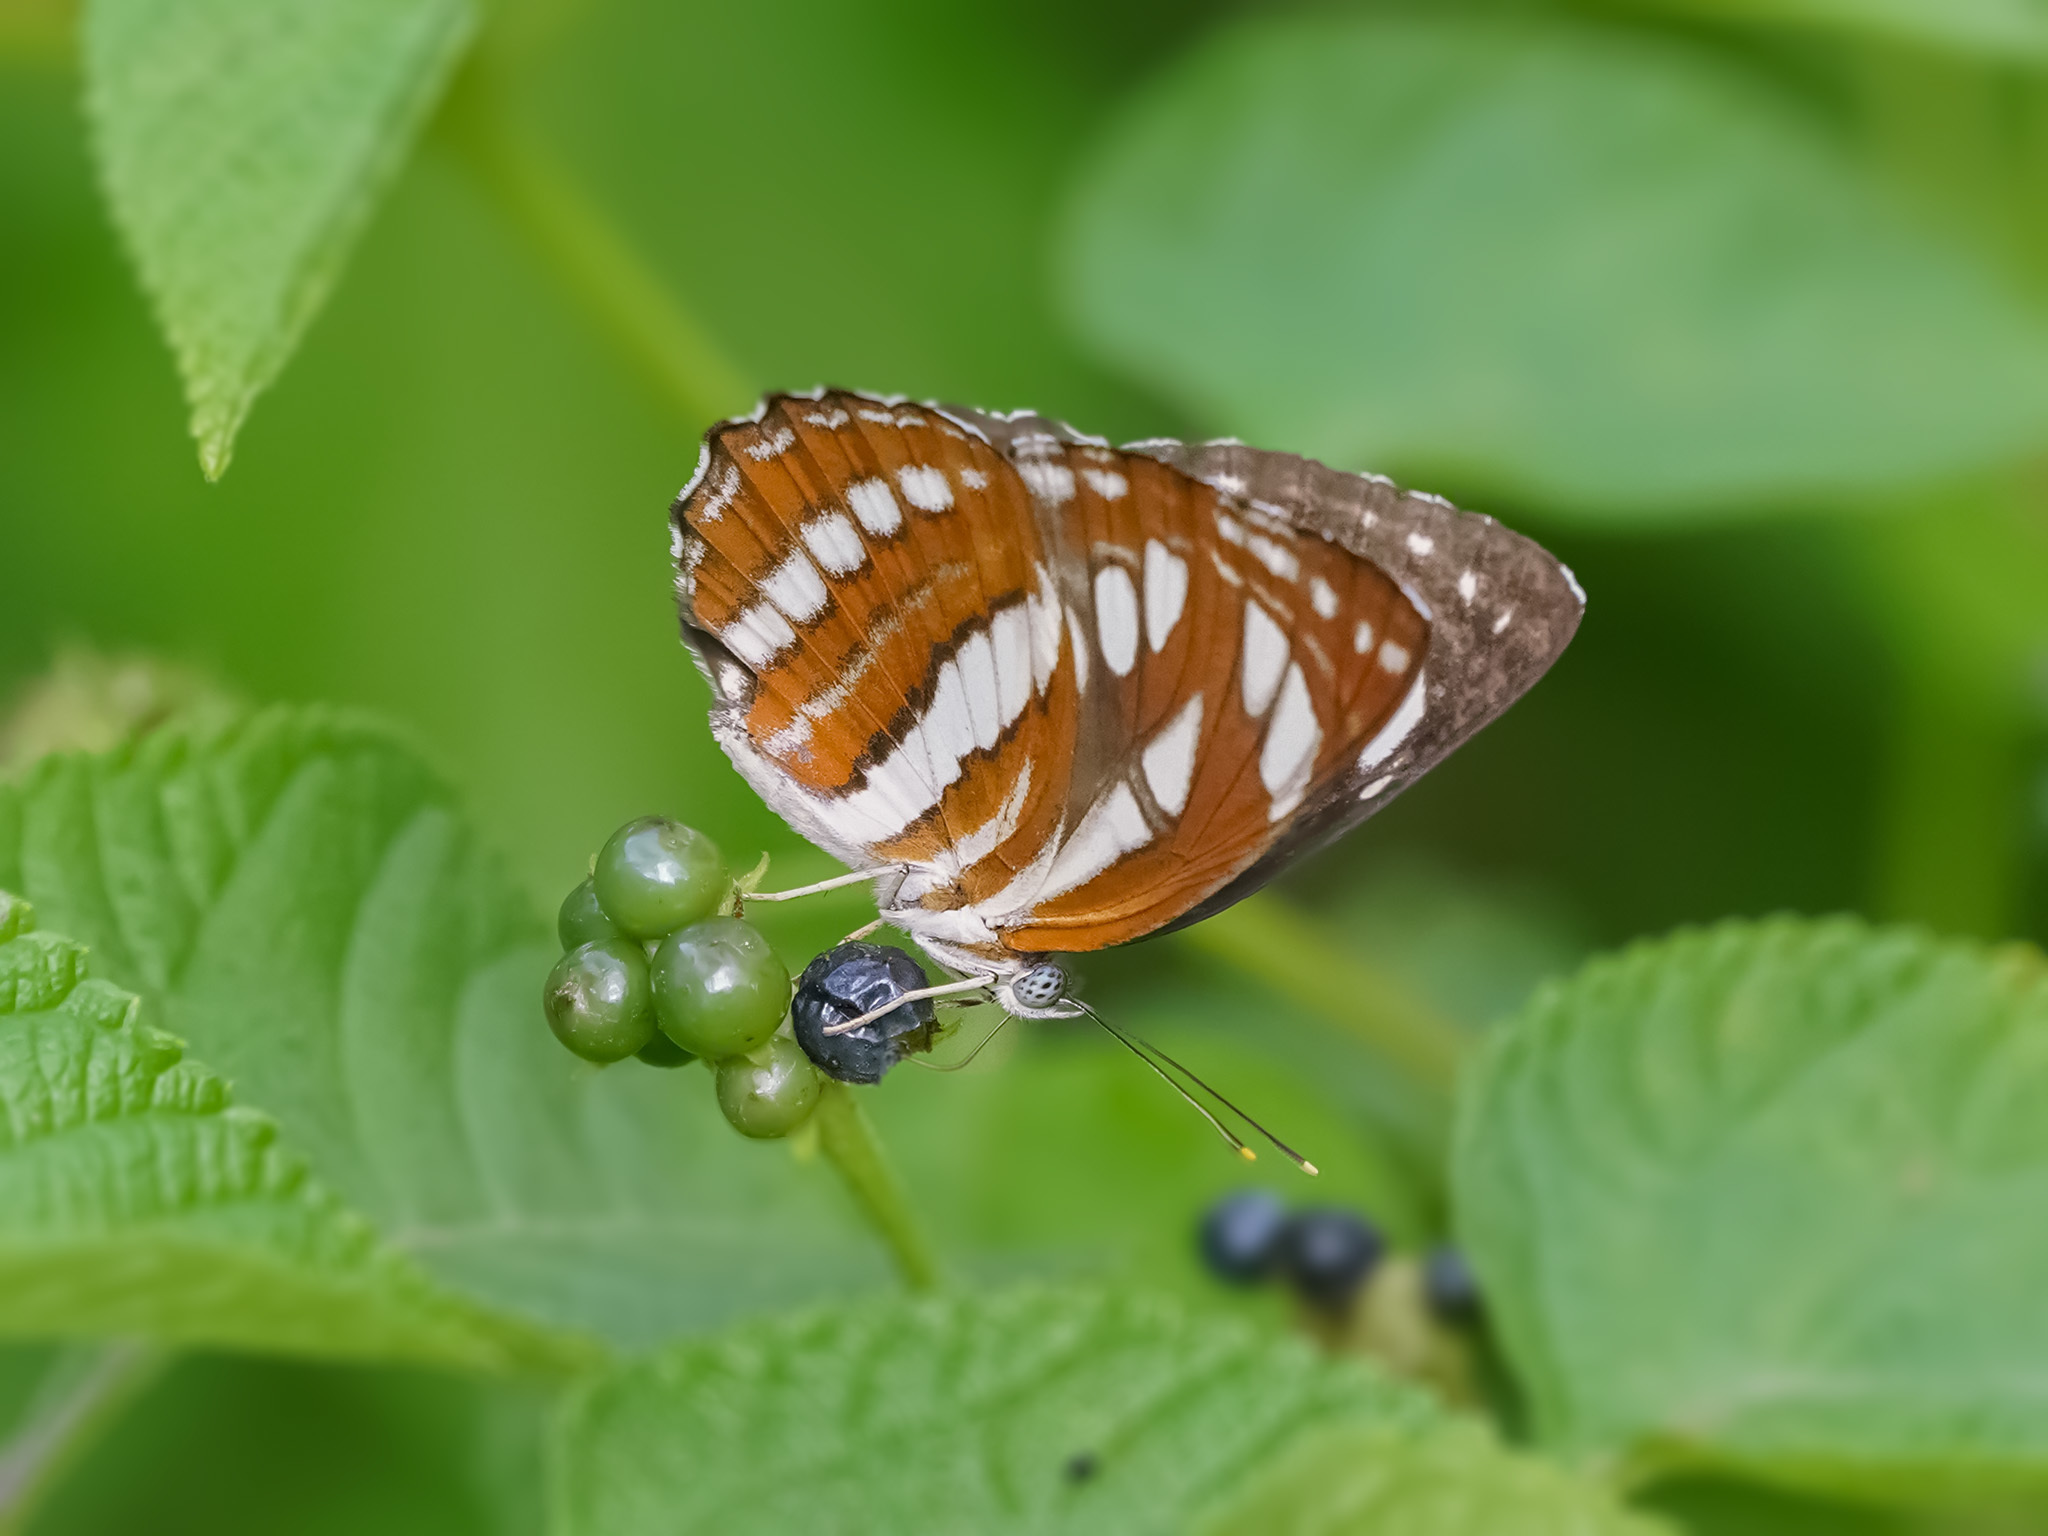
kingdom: Animalia
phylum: Arthropoda
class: Insecta
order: Lepidoptera
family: Nymphalidae
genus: Neptis
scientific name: Neptis hylas
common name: Common sailer
